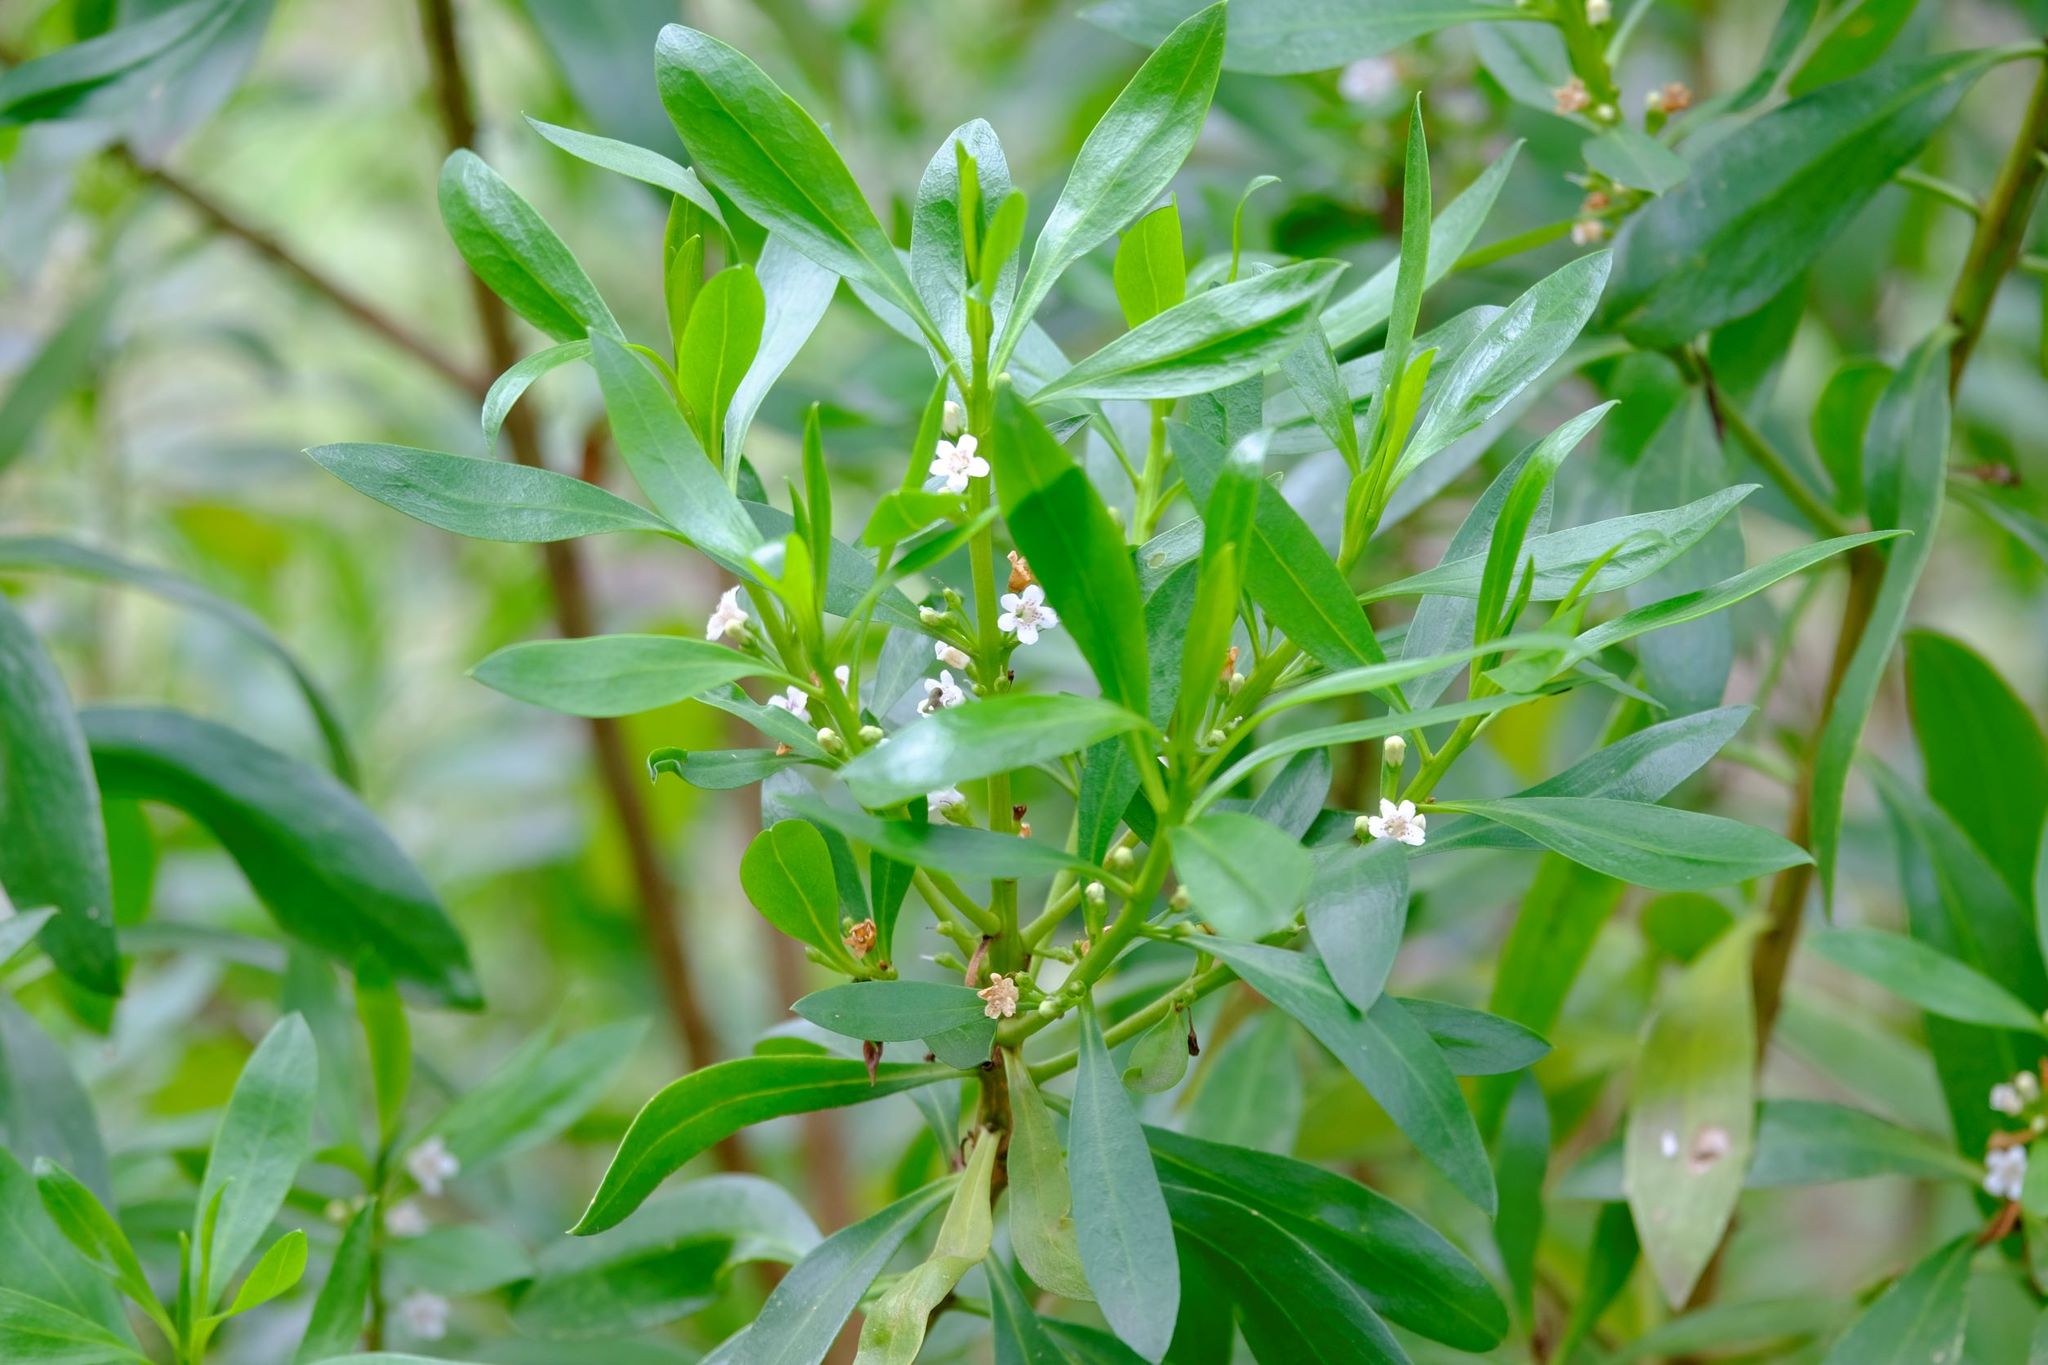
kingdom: Plantae
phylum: Tracheophyta
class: Magnoliopsida
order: Lamiales
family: Scrophulariaceae
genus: Myoporum
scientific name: Myoporum insulare
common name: Common boobialla
